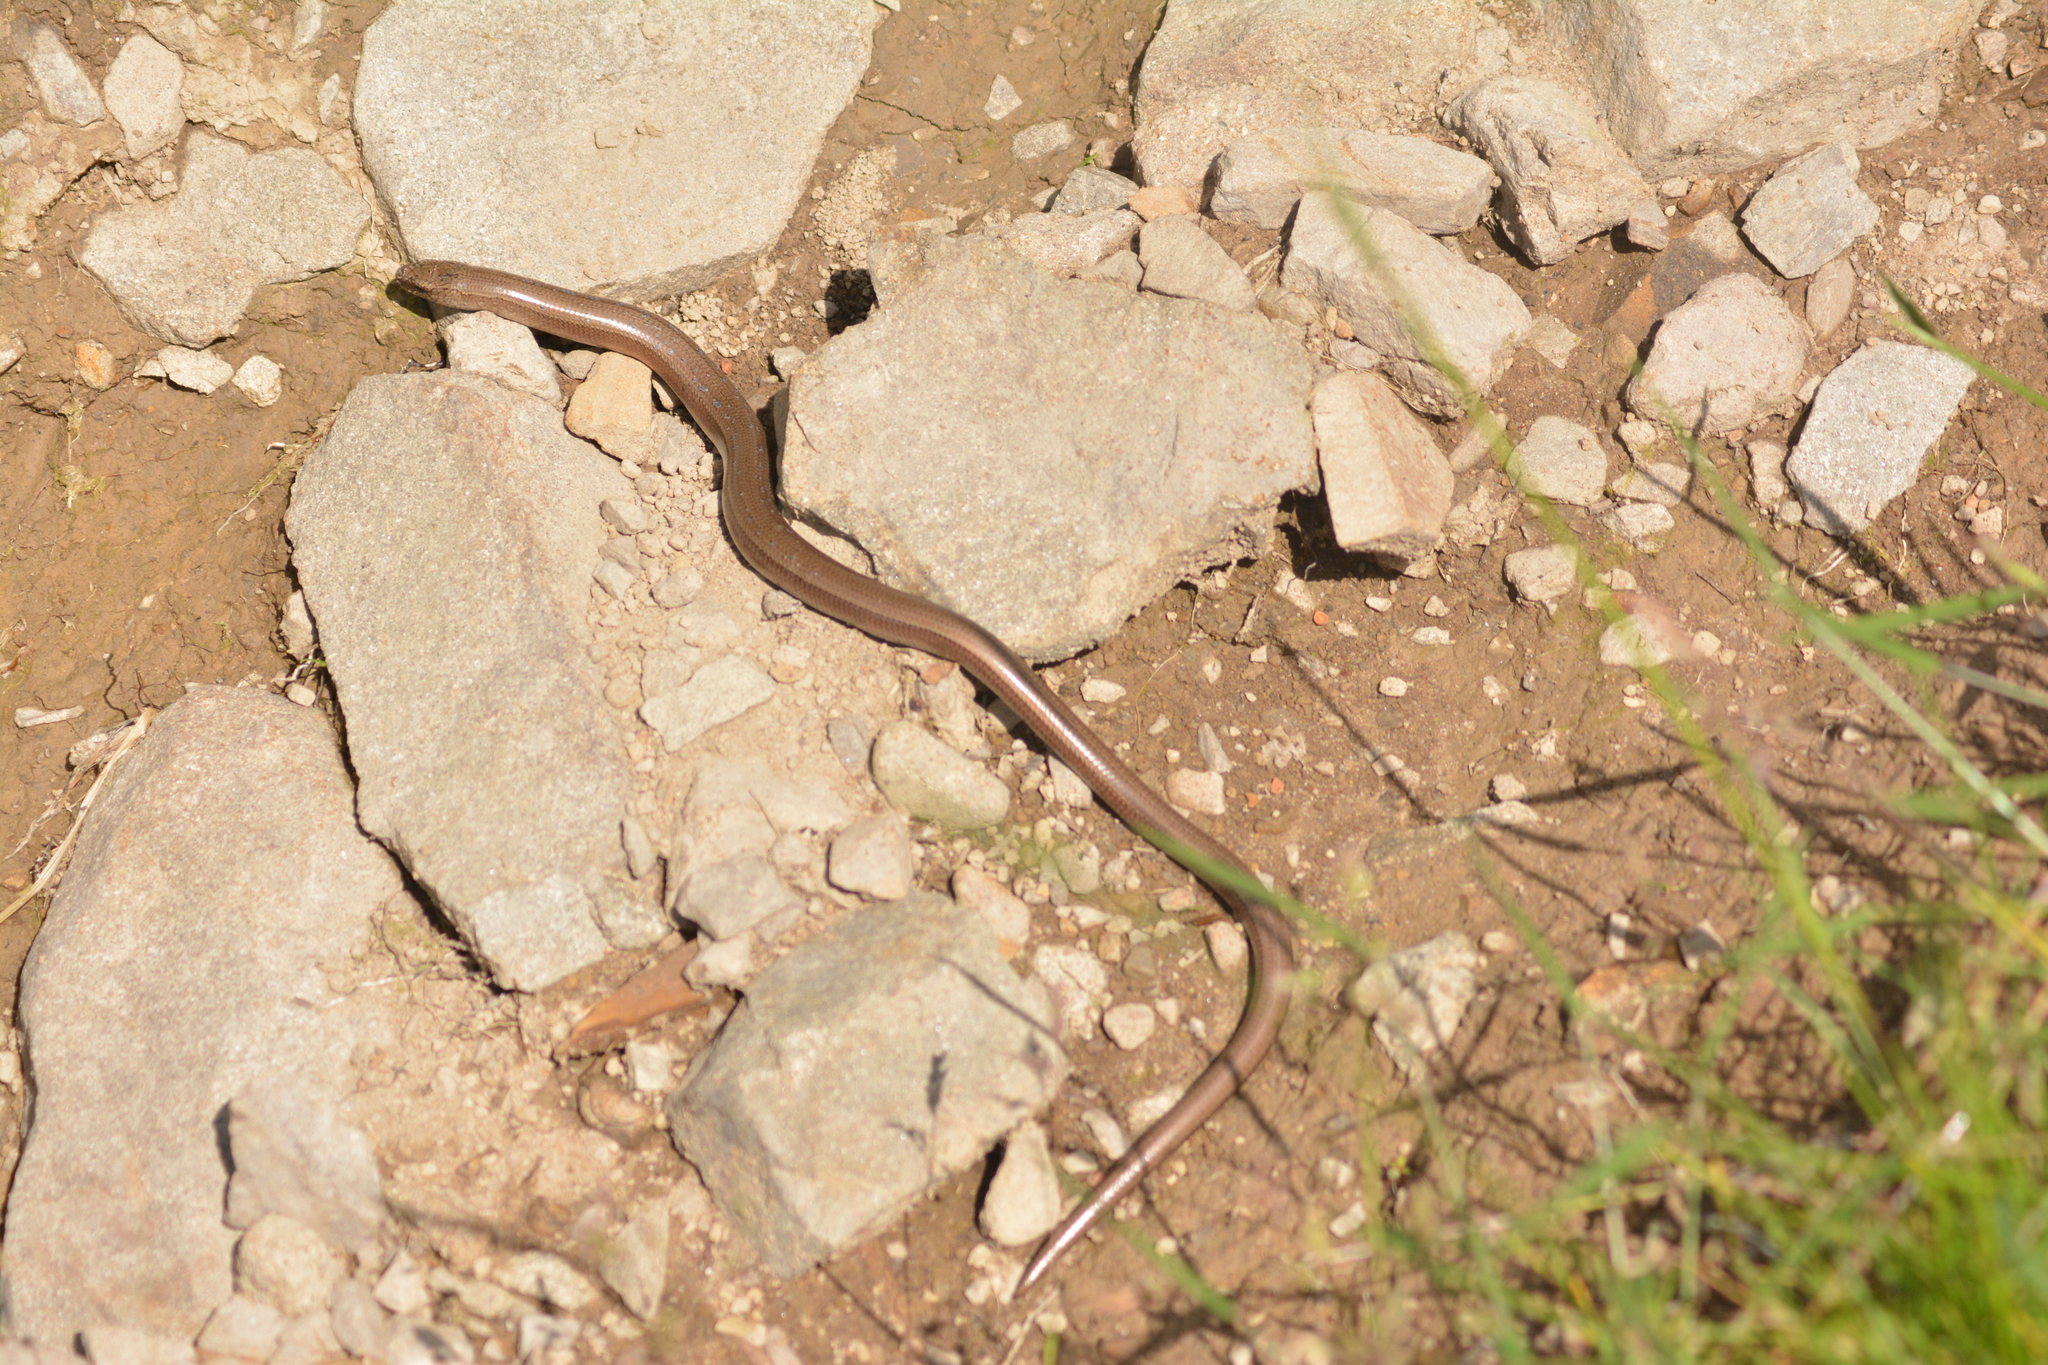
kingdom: Animalia
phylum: Chordata
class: Squamata
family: Anguidae
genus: Anguis
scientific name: Anguis colchica
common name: Slow worm
